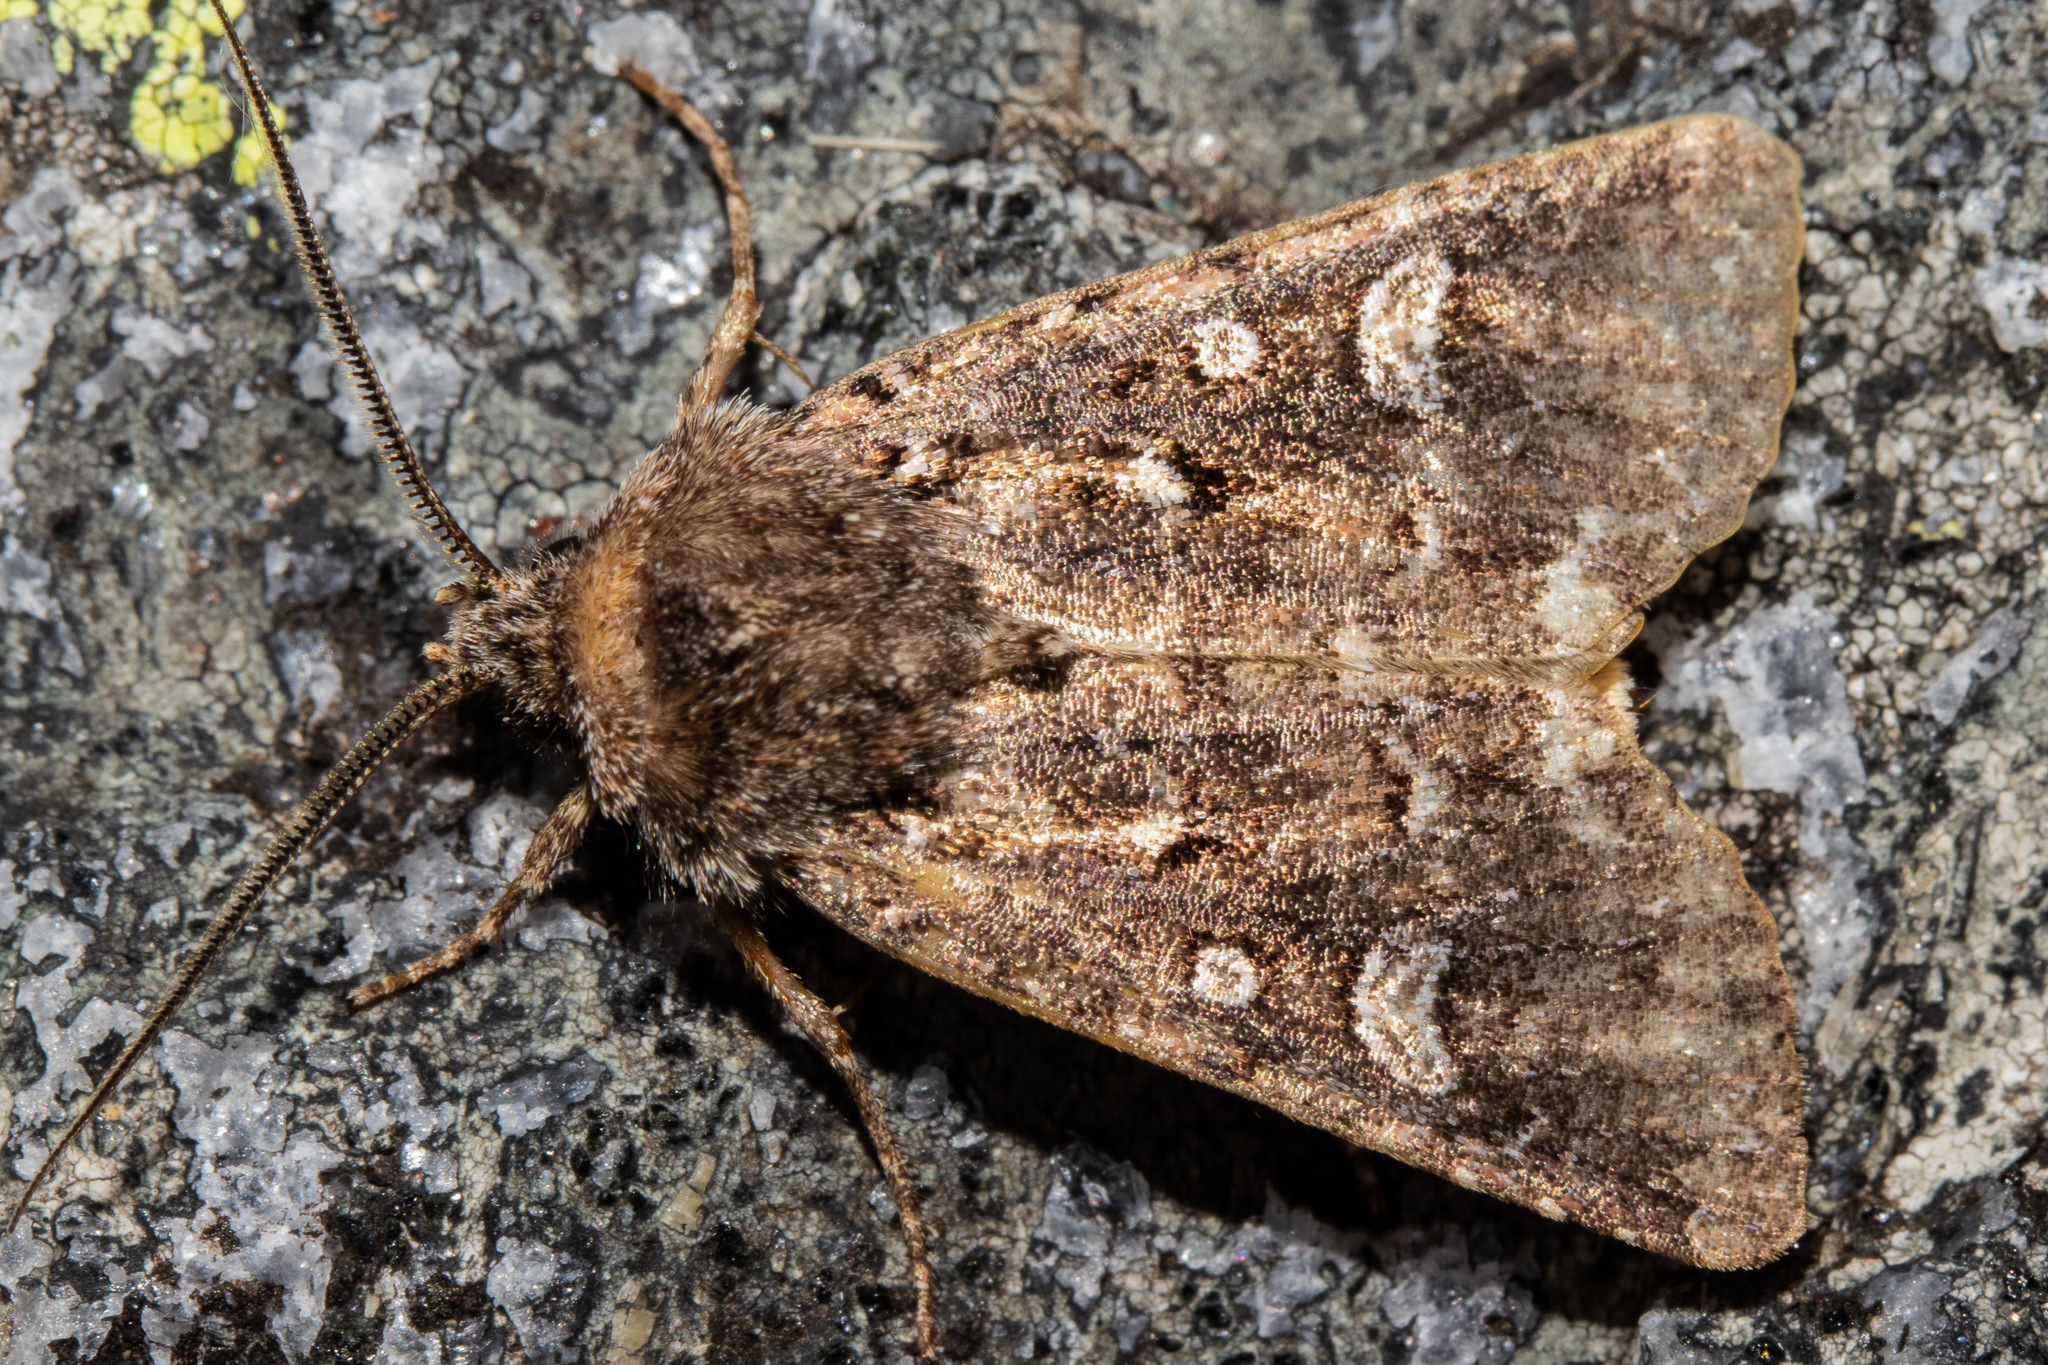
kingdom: Animalia
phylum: Arthropoda
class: Insecta
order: Lepidoptera
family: Noctuidae
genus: Ichneutica
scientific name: Ichneutica lithias
